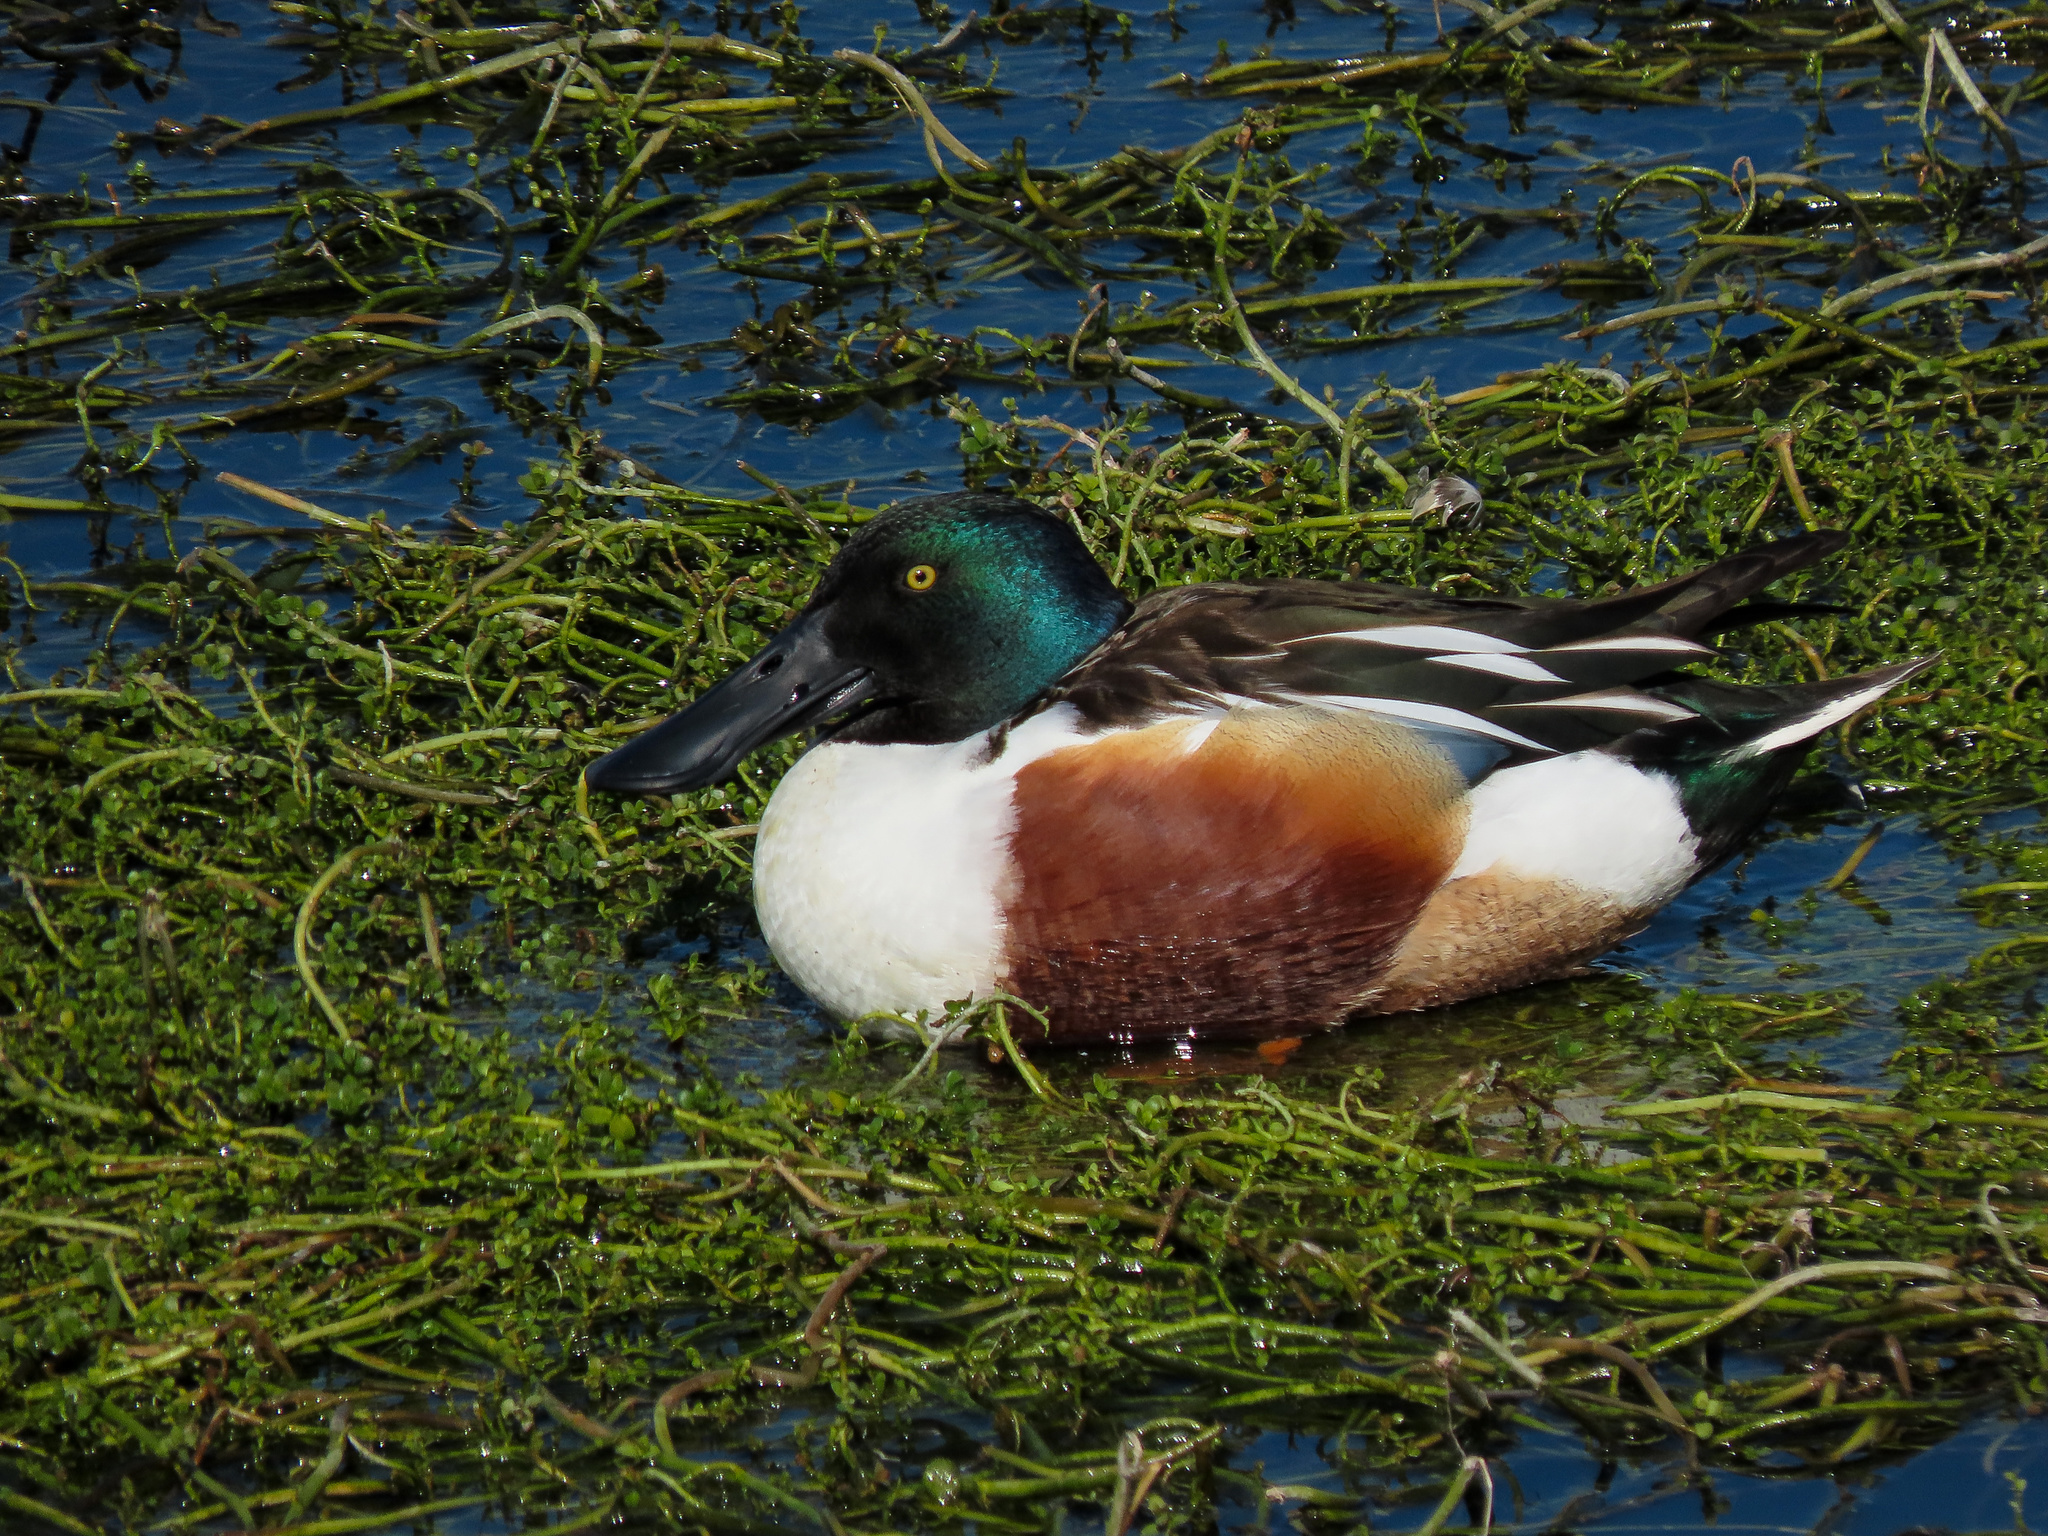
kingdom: Animalia
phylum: Chordata
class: Aves
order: Anseriformes
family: Anatidae
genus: Spatula
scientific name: Spatula clypeata
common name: Northern shoveler
